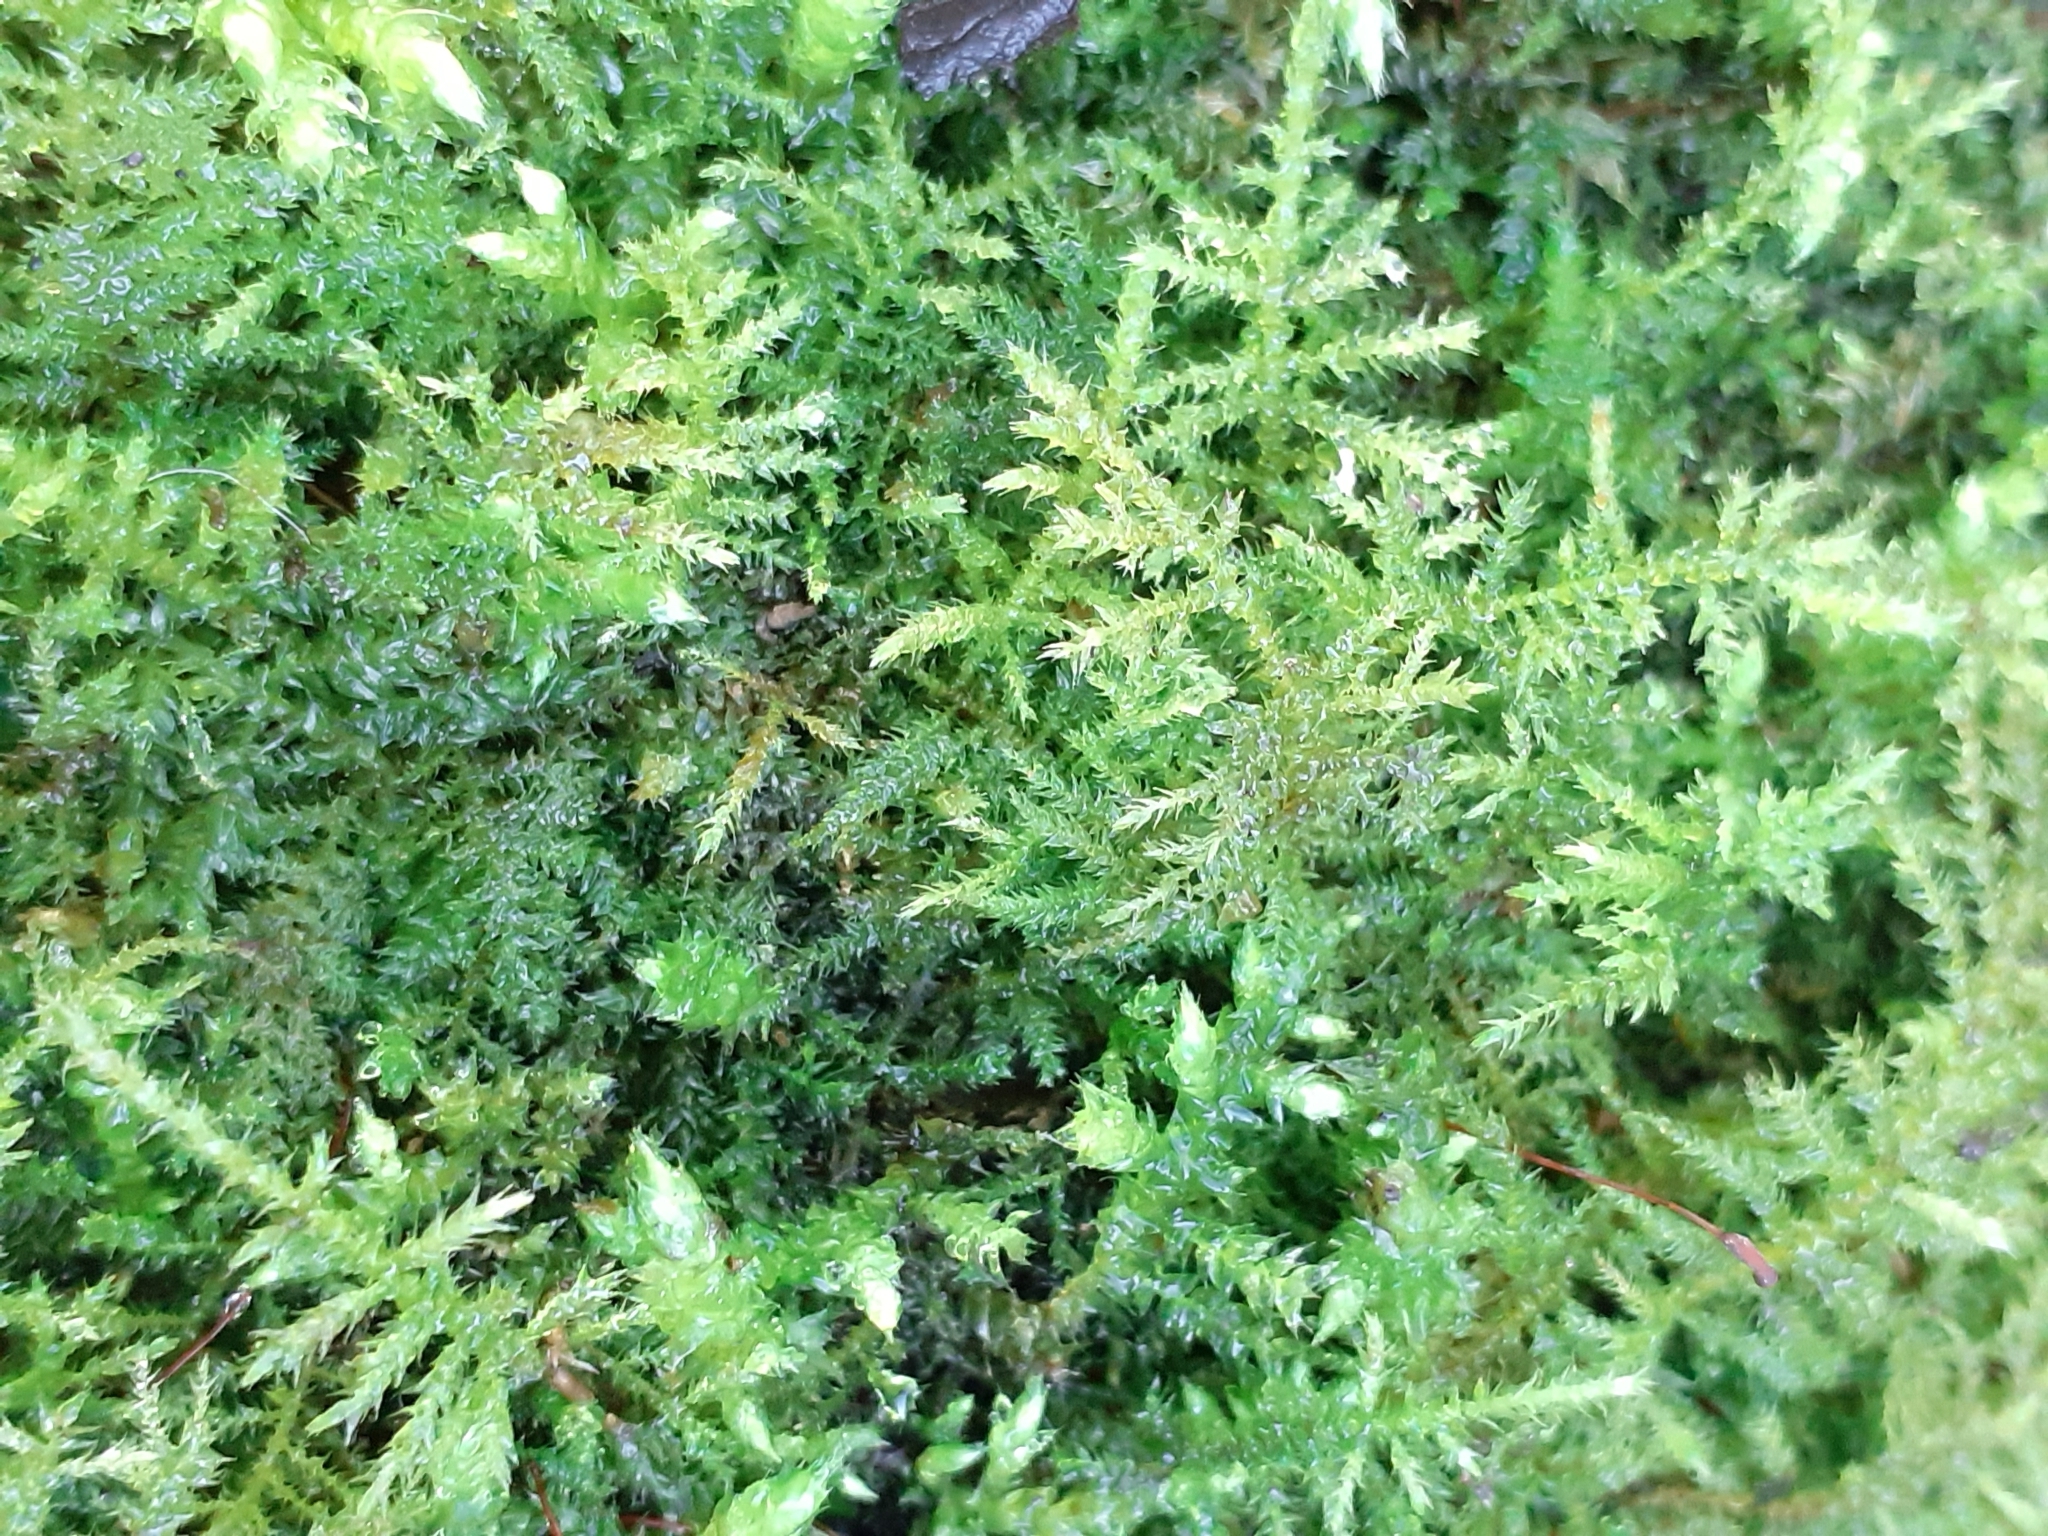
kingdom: Plantae
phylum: Bryophyta
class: Bryopsida
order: Hypnales
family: Brachytheciaceae
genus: Kindbergia
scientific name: Kindbergia praelonga
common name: Slender beaked moss
